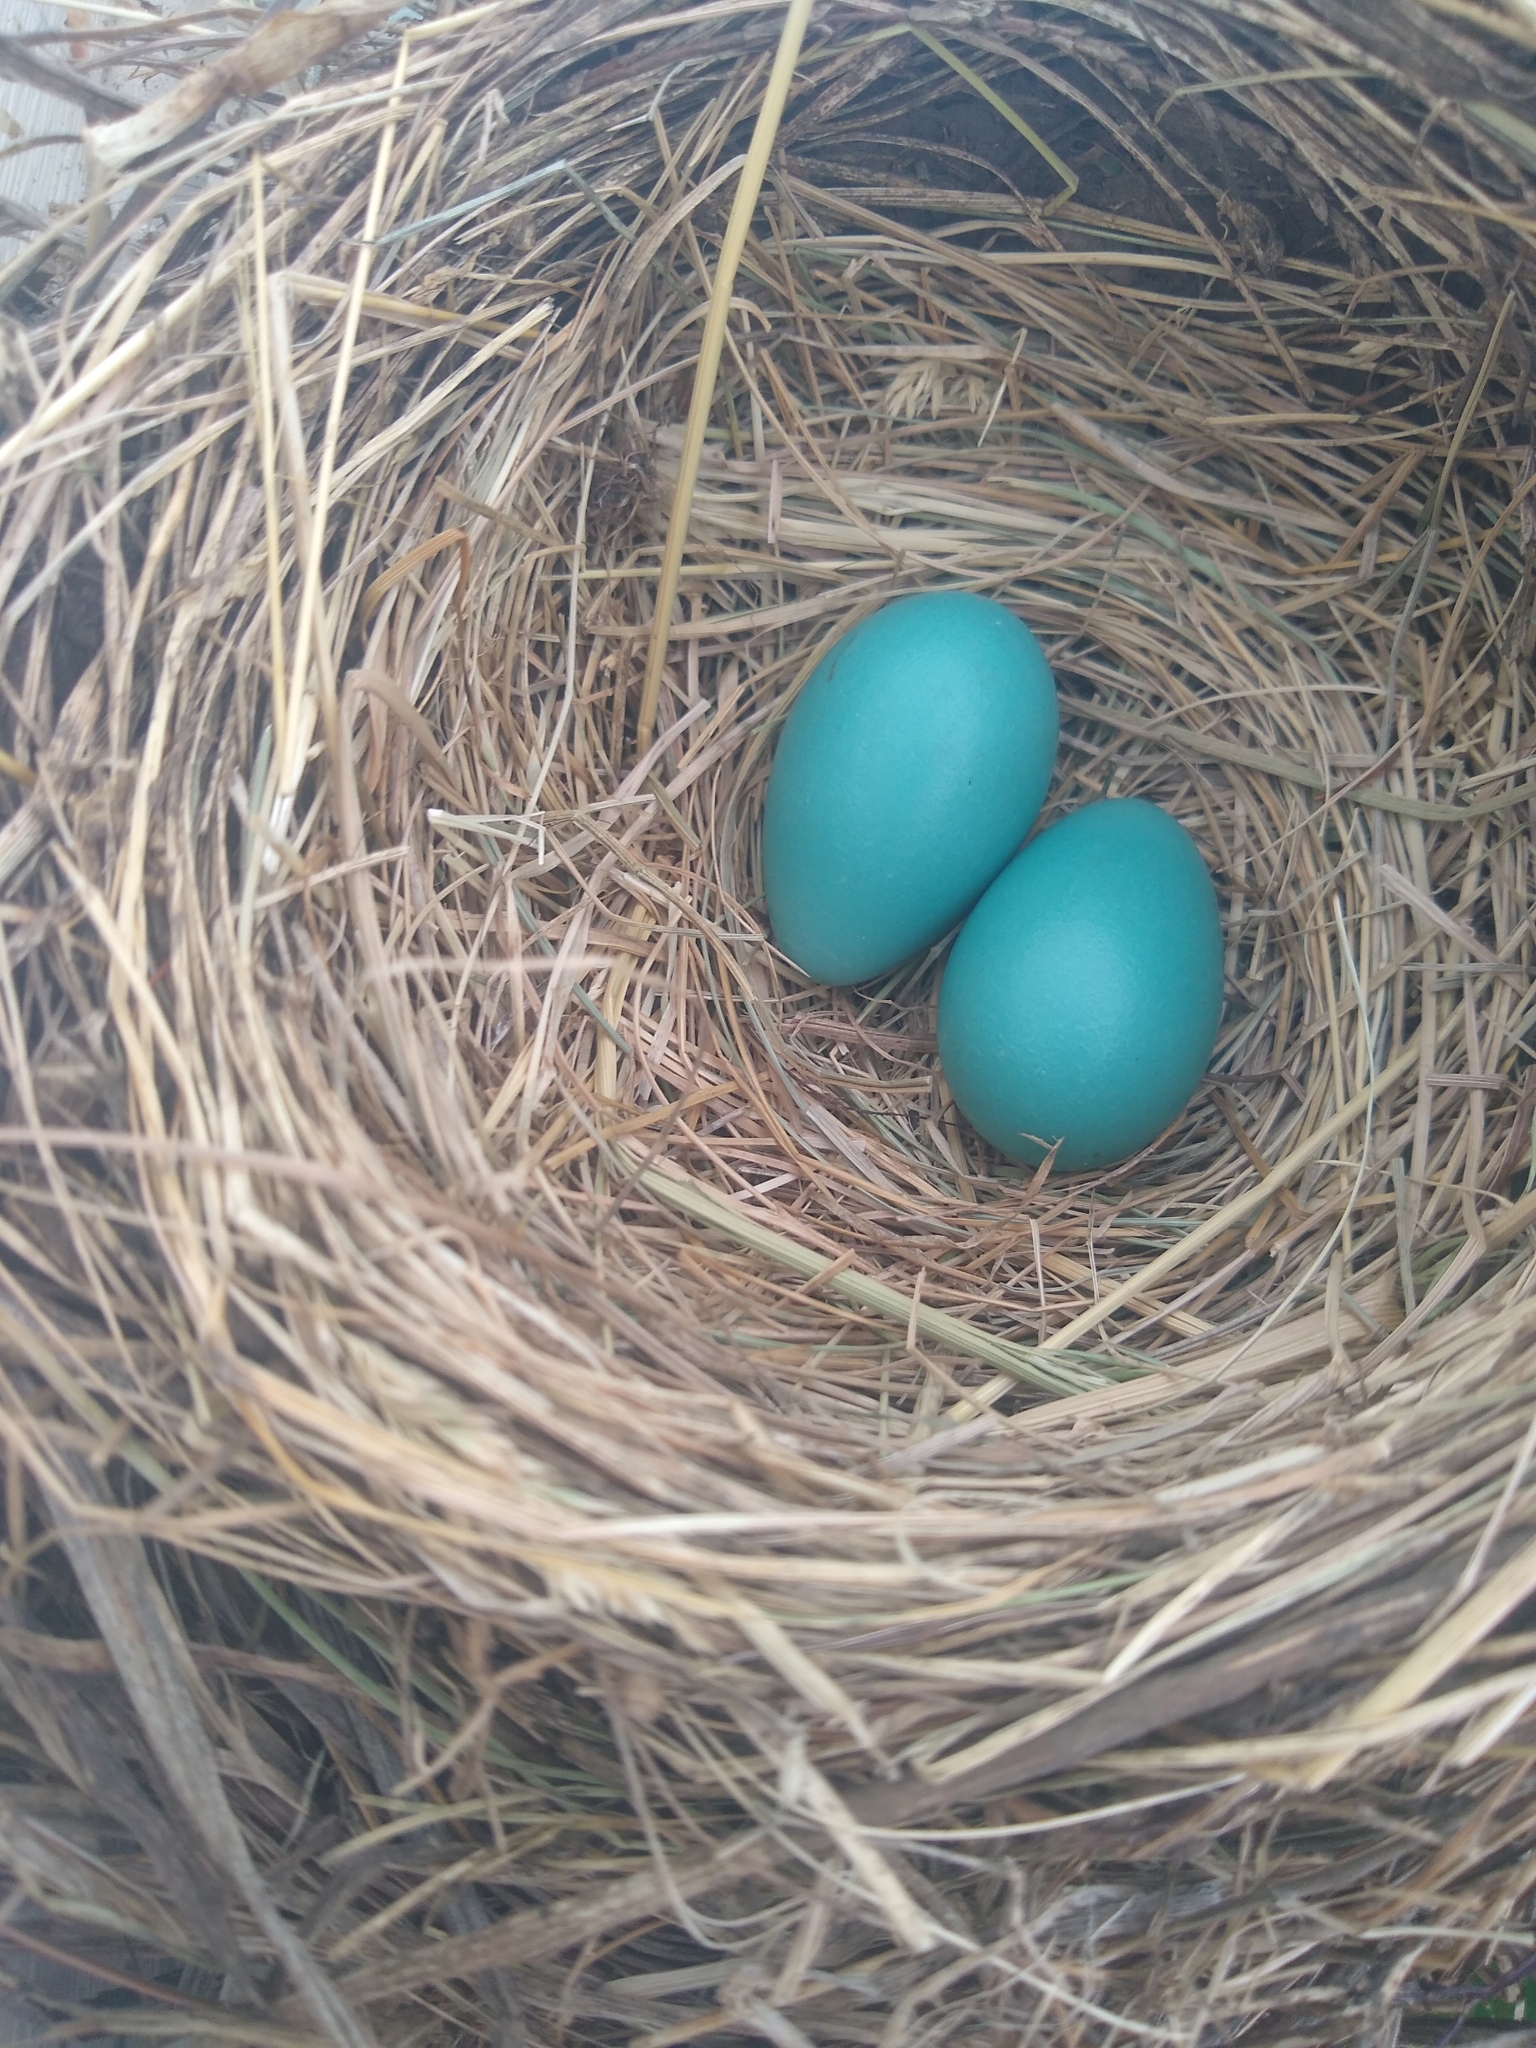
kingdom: Animalia
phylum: Chordata
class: Aves
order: Passeriformes
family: Turdidae
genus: Turdus
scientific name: Turdus migratorius
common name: American robin
